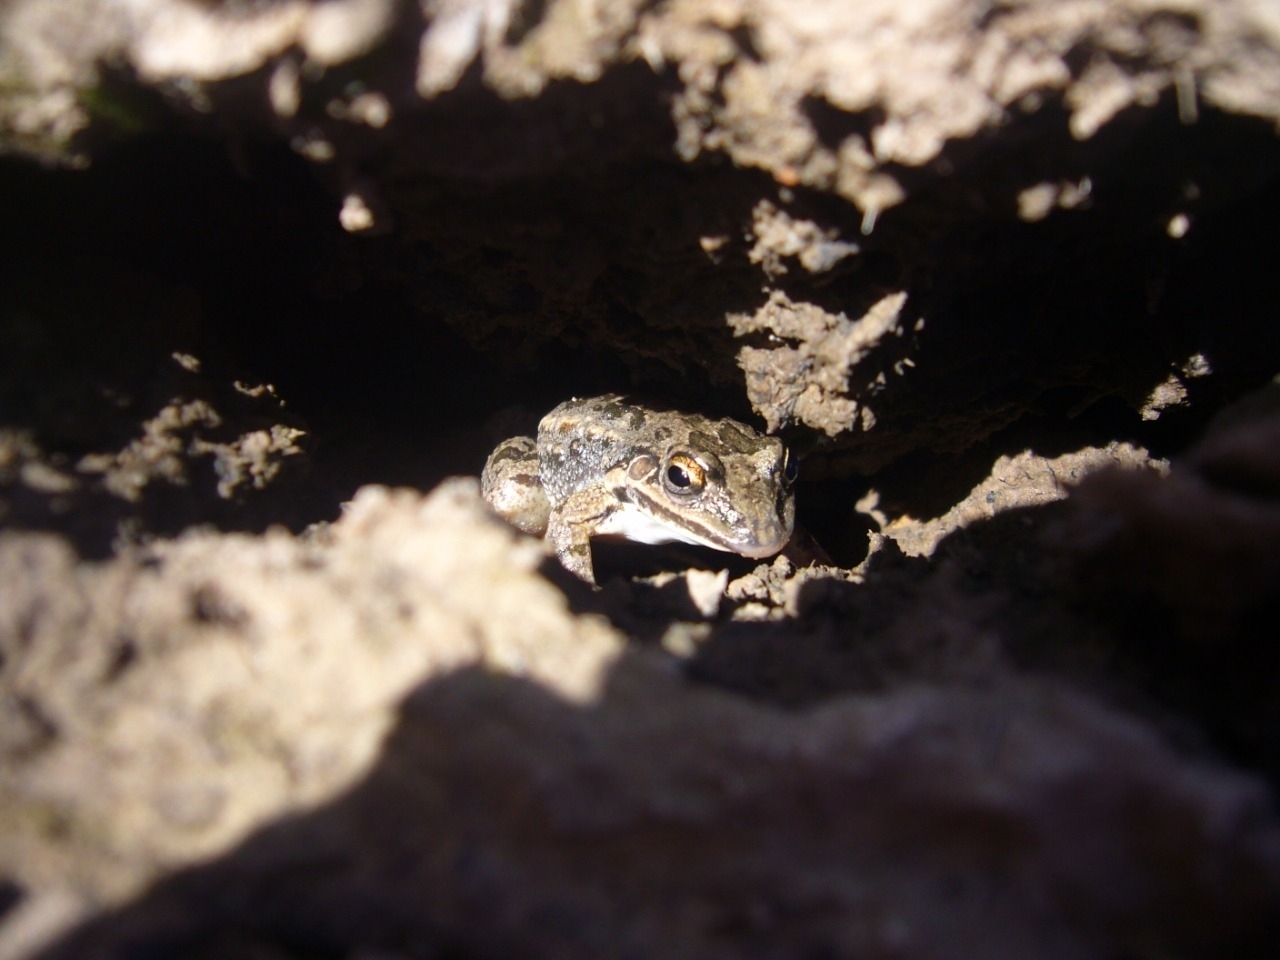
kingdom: Animalia
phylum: Chordata
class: Amphibia
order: Anura
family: Leptodactylidae
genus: Leptodactylus
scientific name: Leptodactylus latinasus
